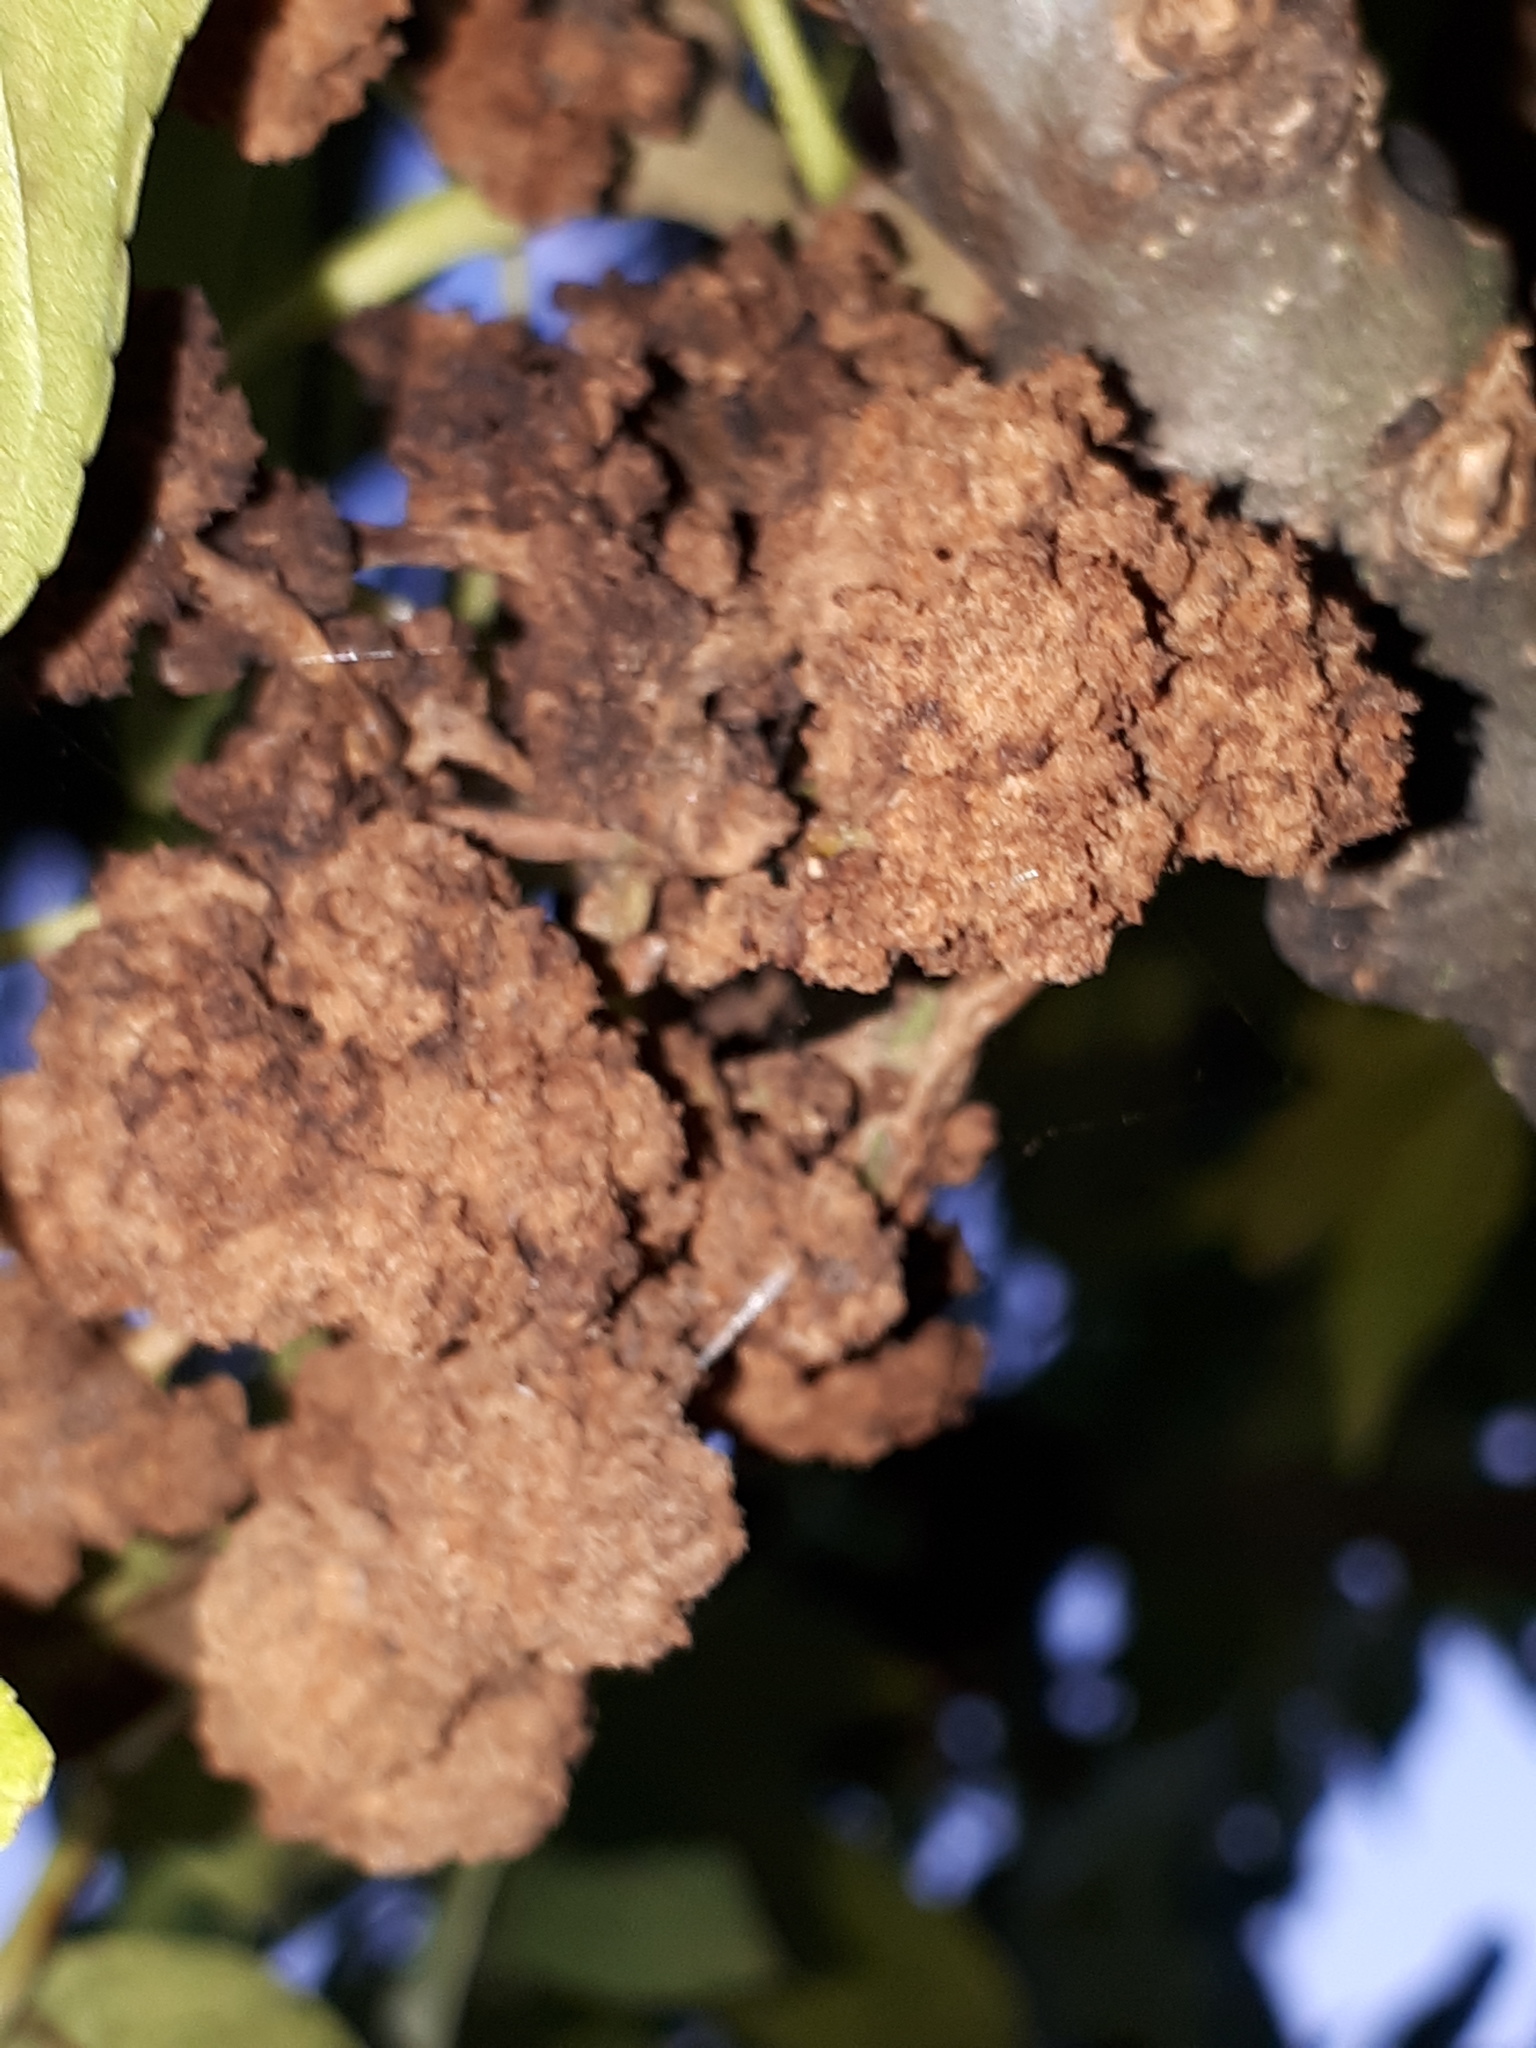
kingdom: Animalia
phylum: Arthropoda
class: Arachnida
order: Trombidiformes
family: Eriophyidae
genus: Aceria
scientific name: Aceria fraxinivora
